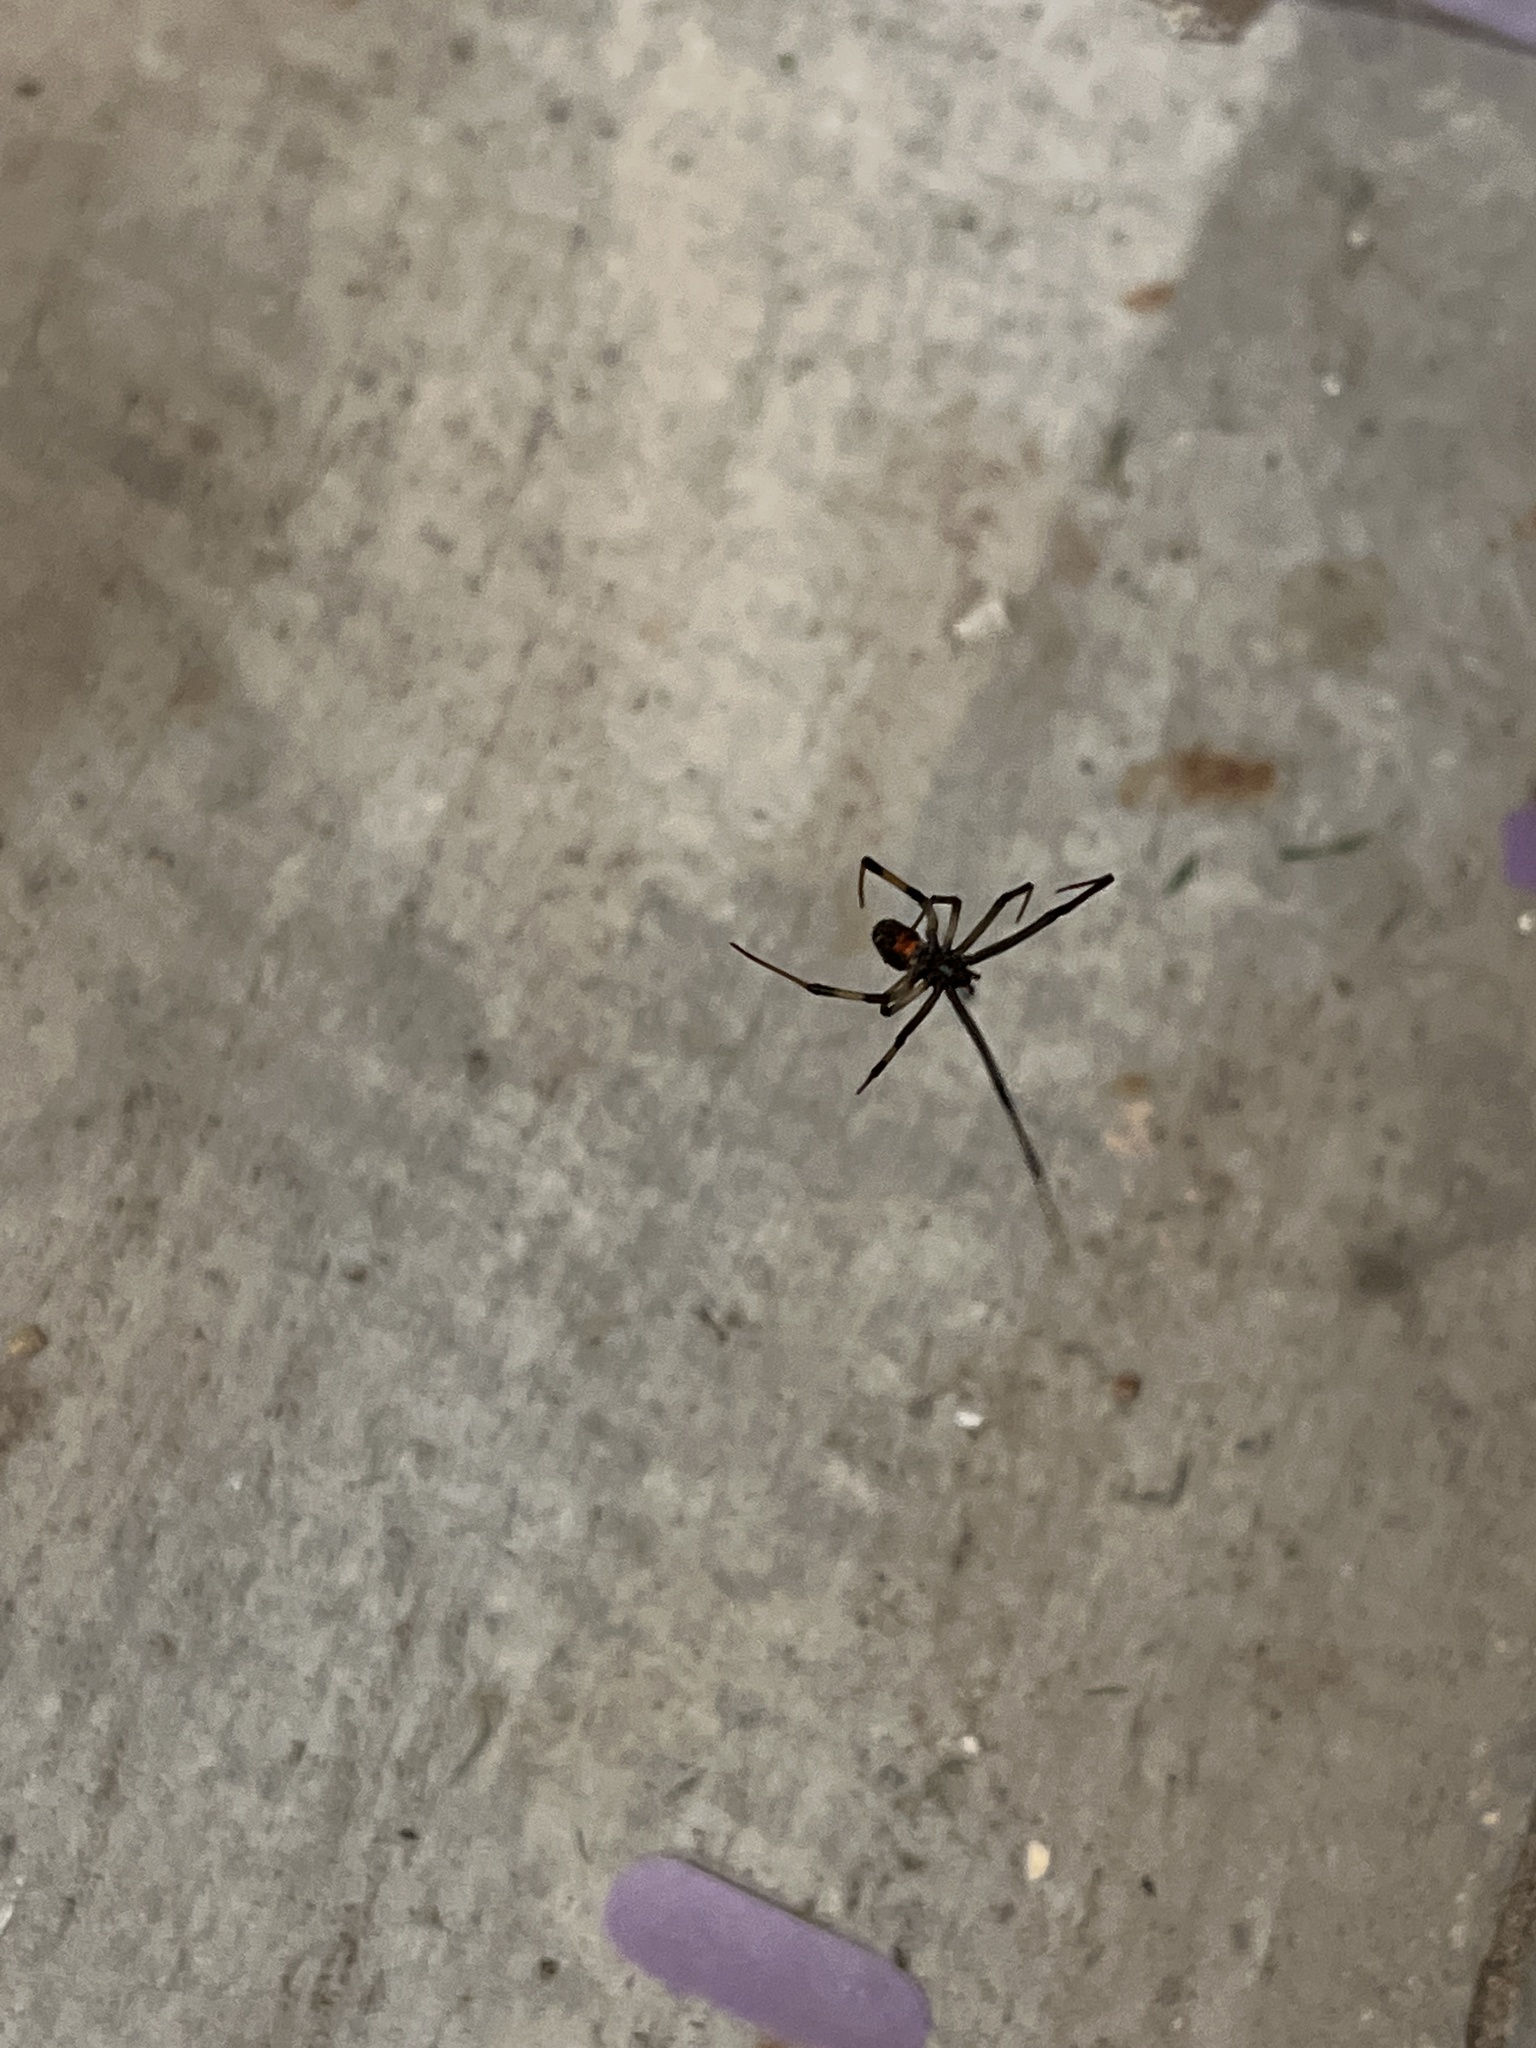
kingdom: Animalia
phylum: Arthropoda
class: Arachnida
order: Araneae
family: Theridiidae
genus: Latrodectus
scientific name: Latrodectus geometricus
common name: Brown widow spider
